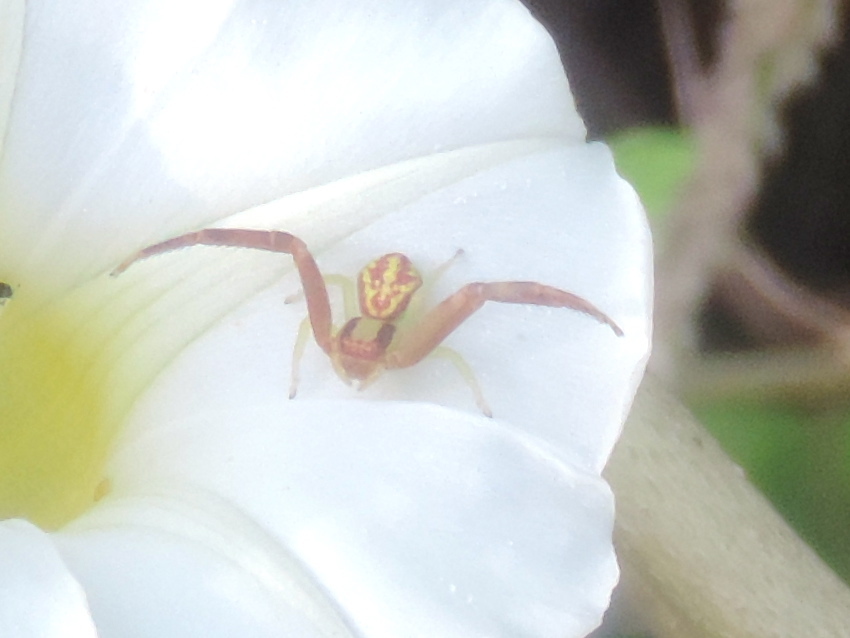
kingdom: Animalia
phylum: Arthropoda
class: Arachnida
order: Araneae
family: Thomisidae
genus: Mecaphesa
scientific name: Mecaphesa
